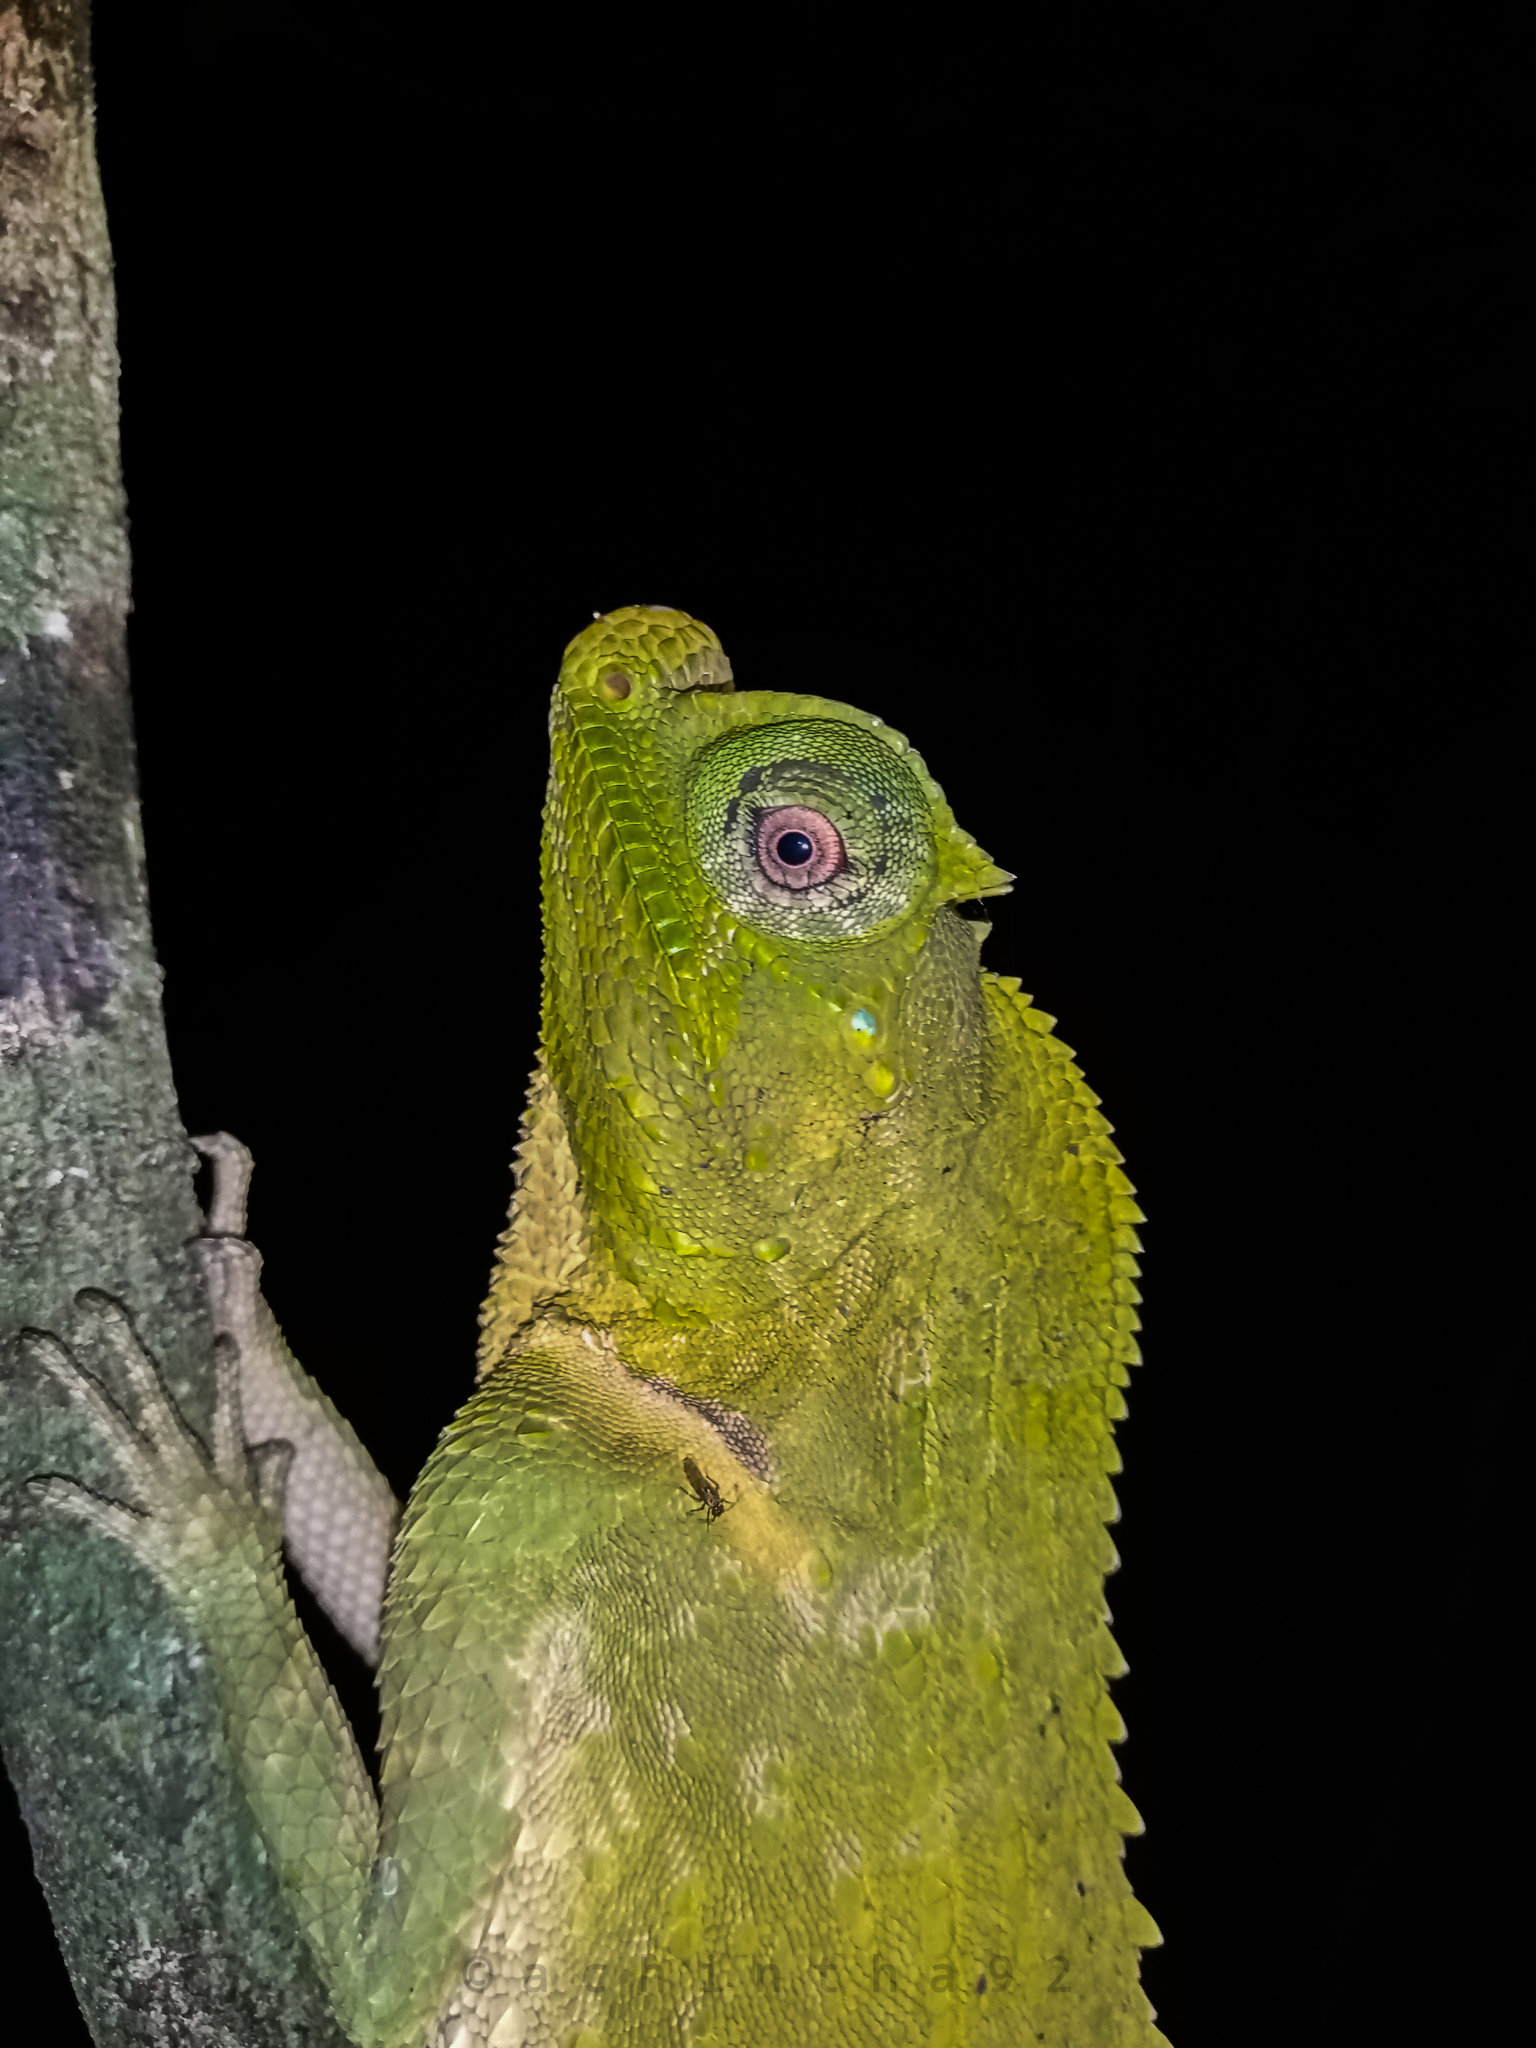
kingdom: Animalia
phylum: Chordata
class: Squamata
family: Agamidae
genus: Lyriocephalus
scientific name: Lyriocephalus scutatus
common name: Hump snout lizard
